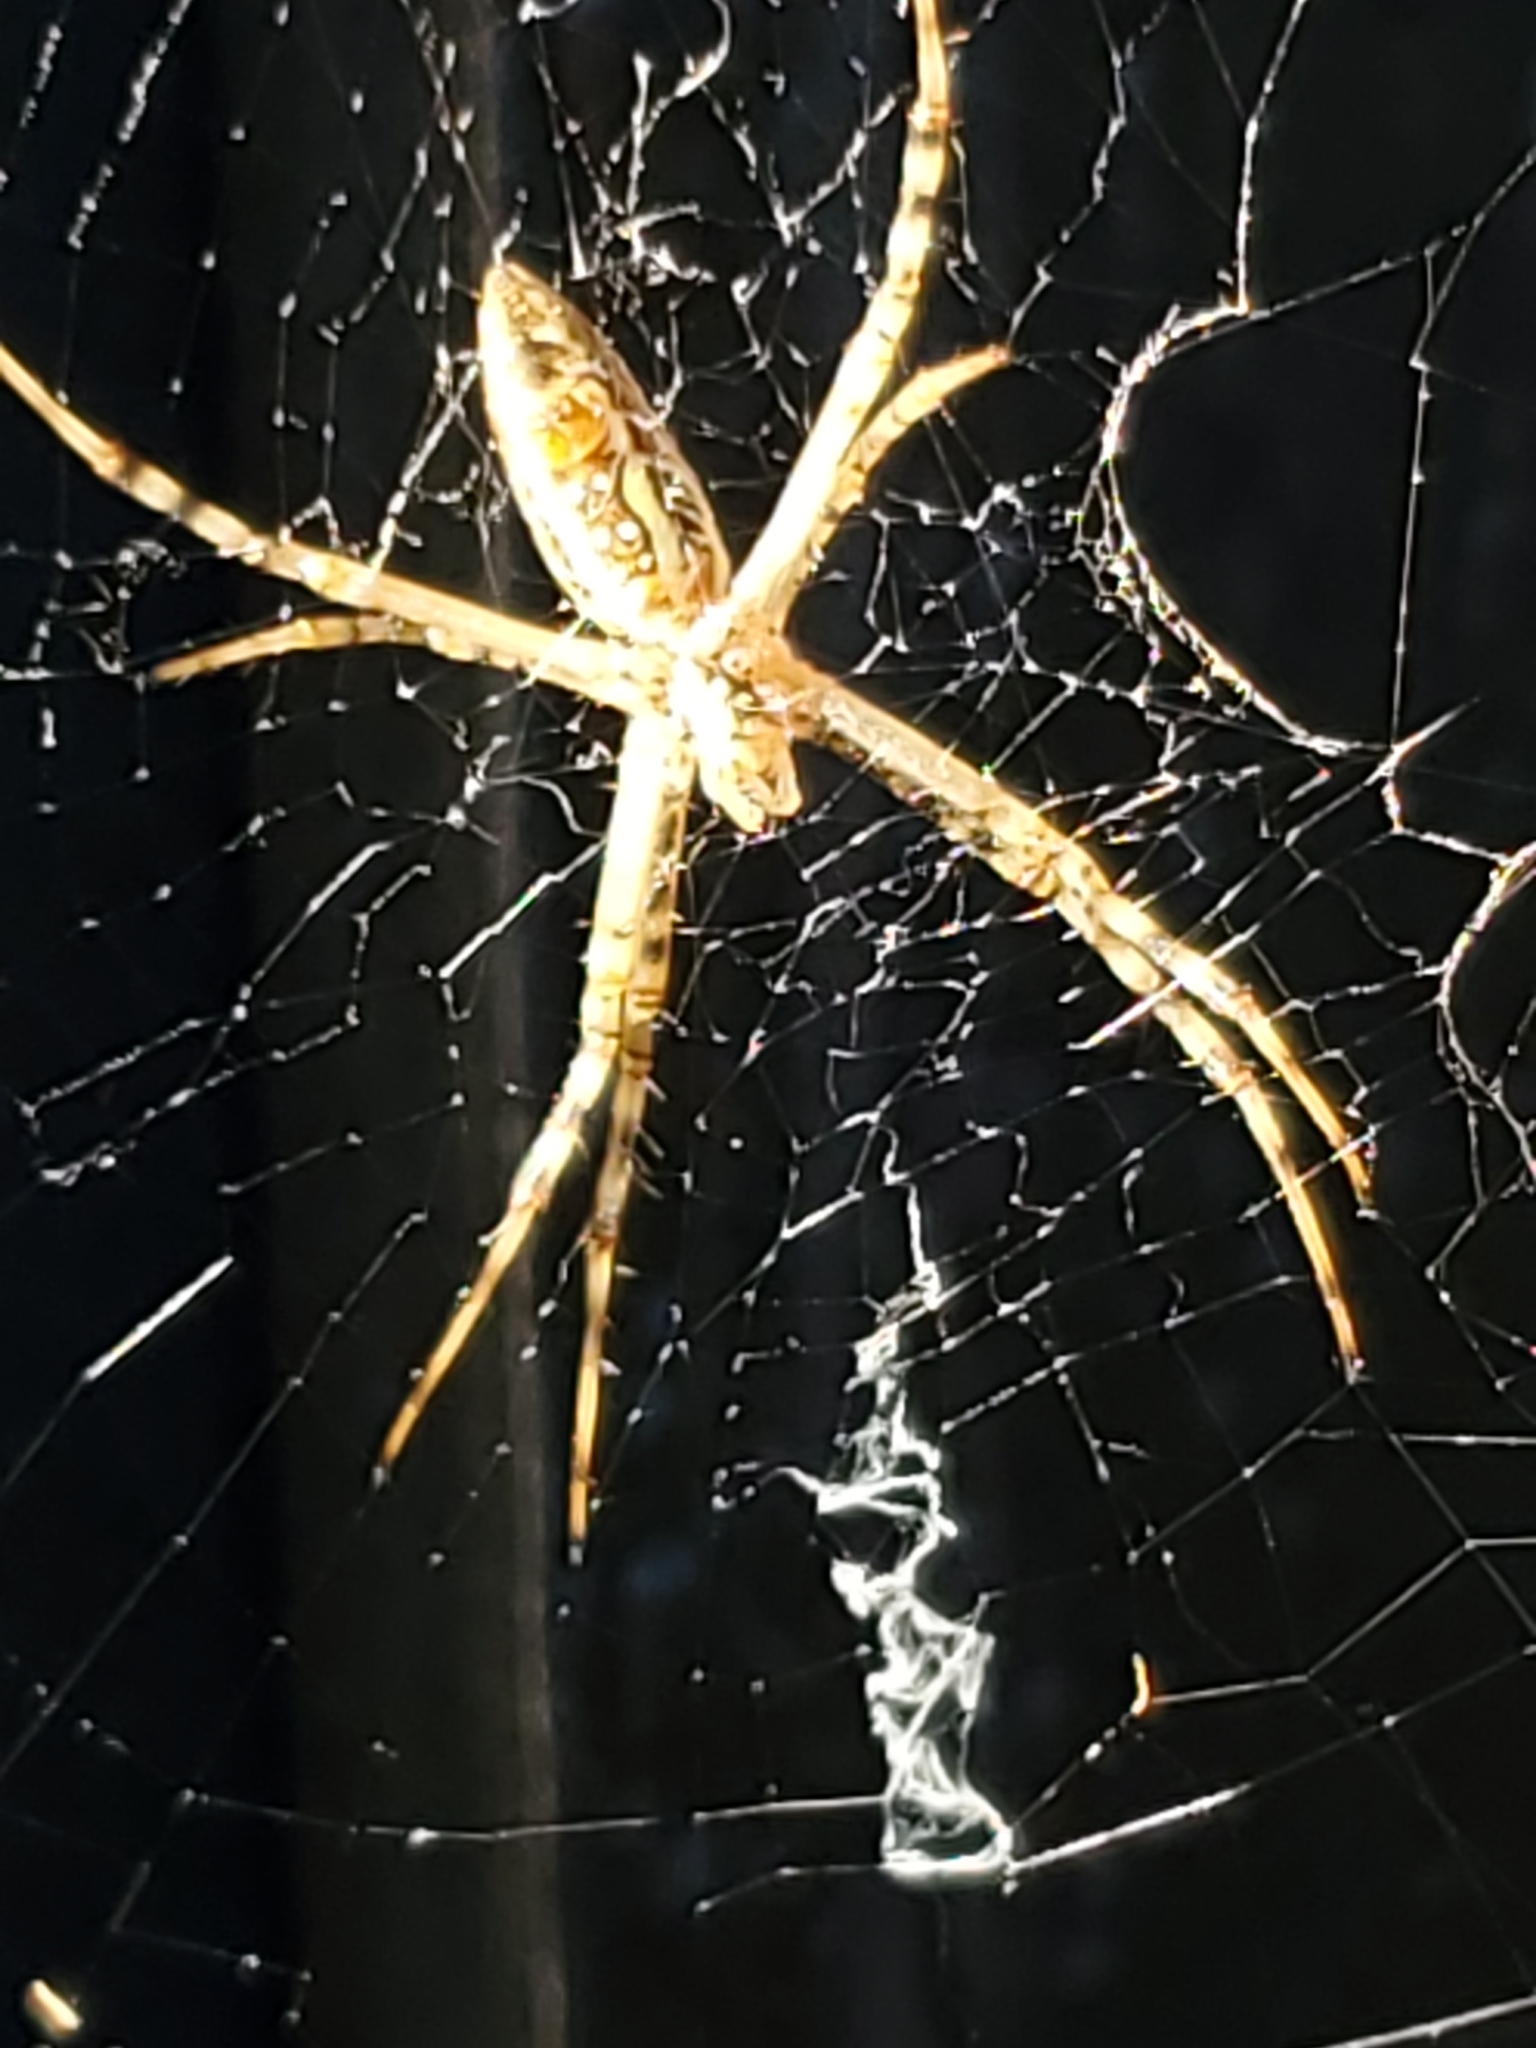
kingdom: Animalia
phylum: Arthropoda
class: Arachnida
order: Araneae
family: Araneidae
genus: Argiope
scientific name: Argiope trifasciata
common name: Banded garden spider
